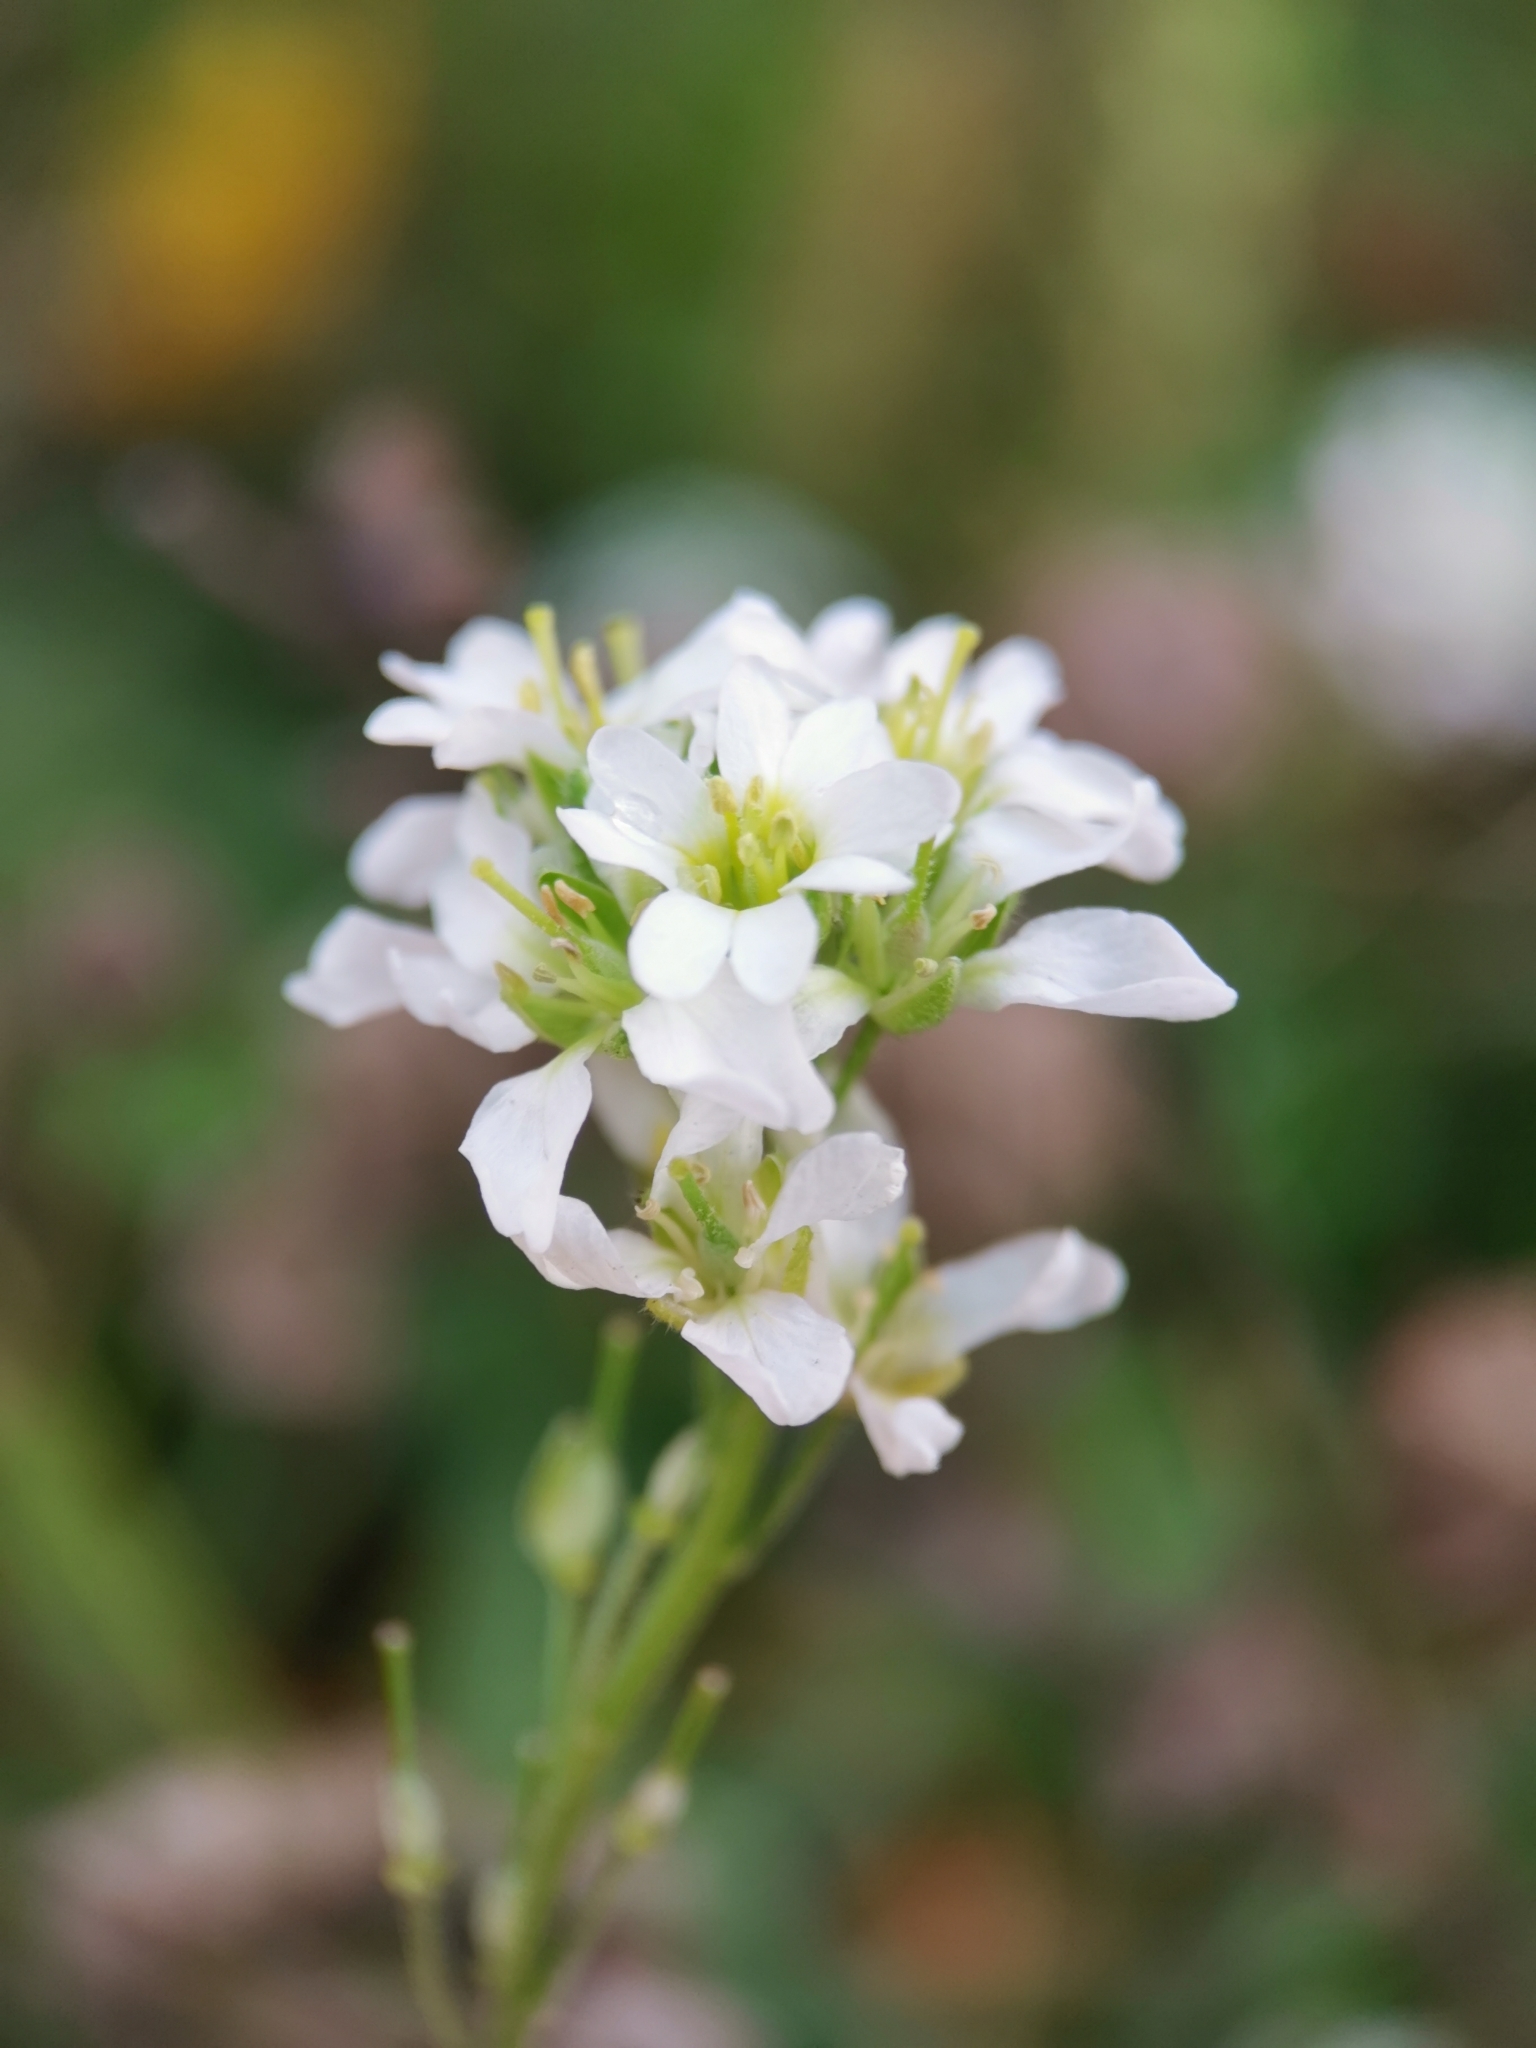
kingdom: Plantae
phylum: Tracheophyta
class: Magnoliopsida
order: Brassicales
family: Brassicaceae
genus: Berteroa
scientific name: Berteroa incana
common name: Hoary alison
